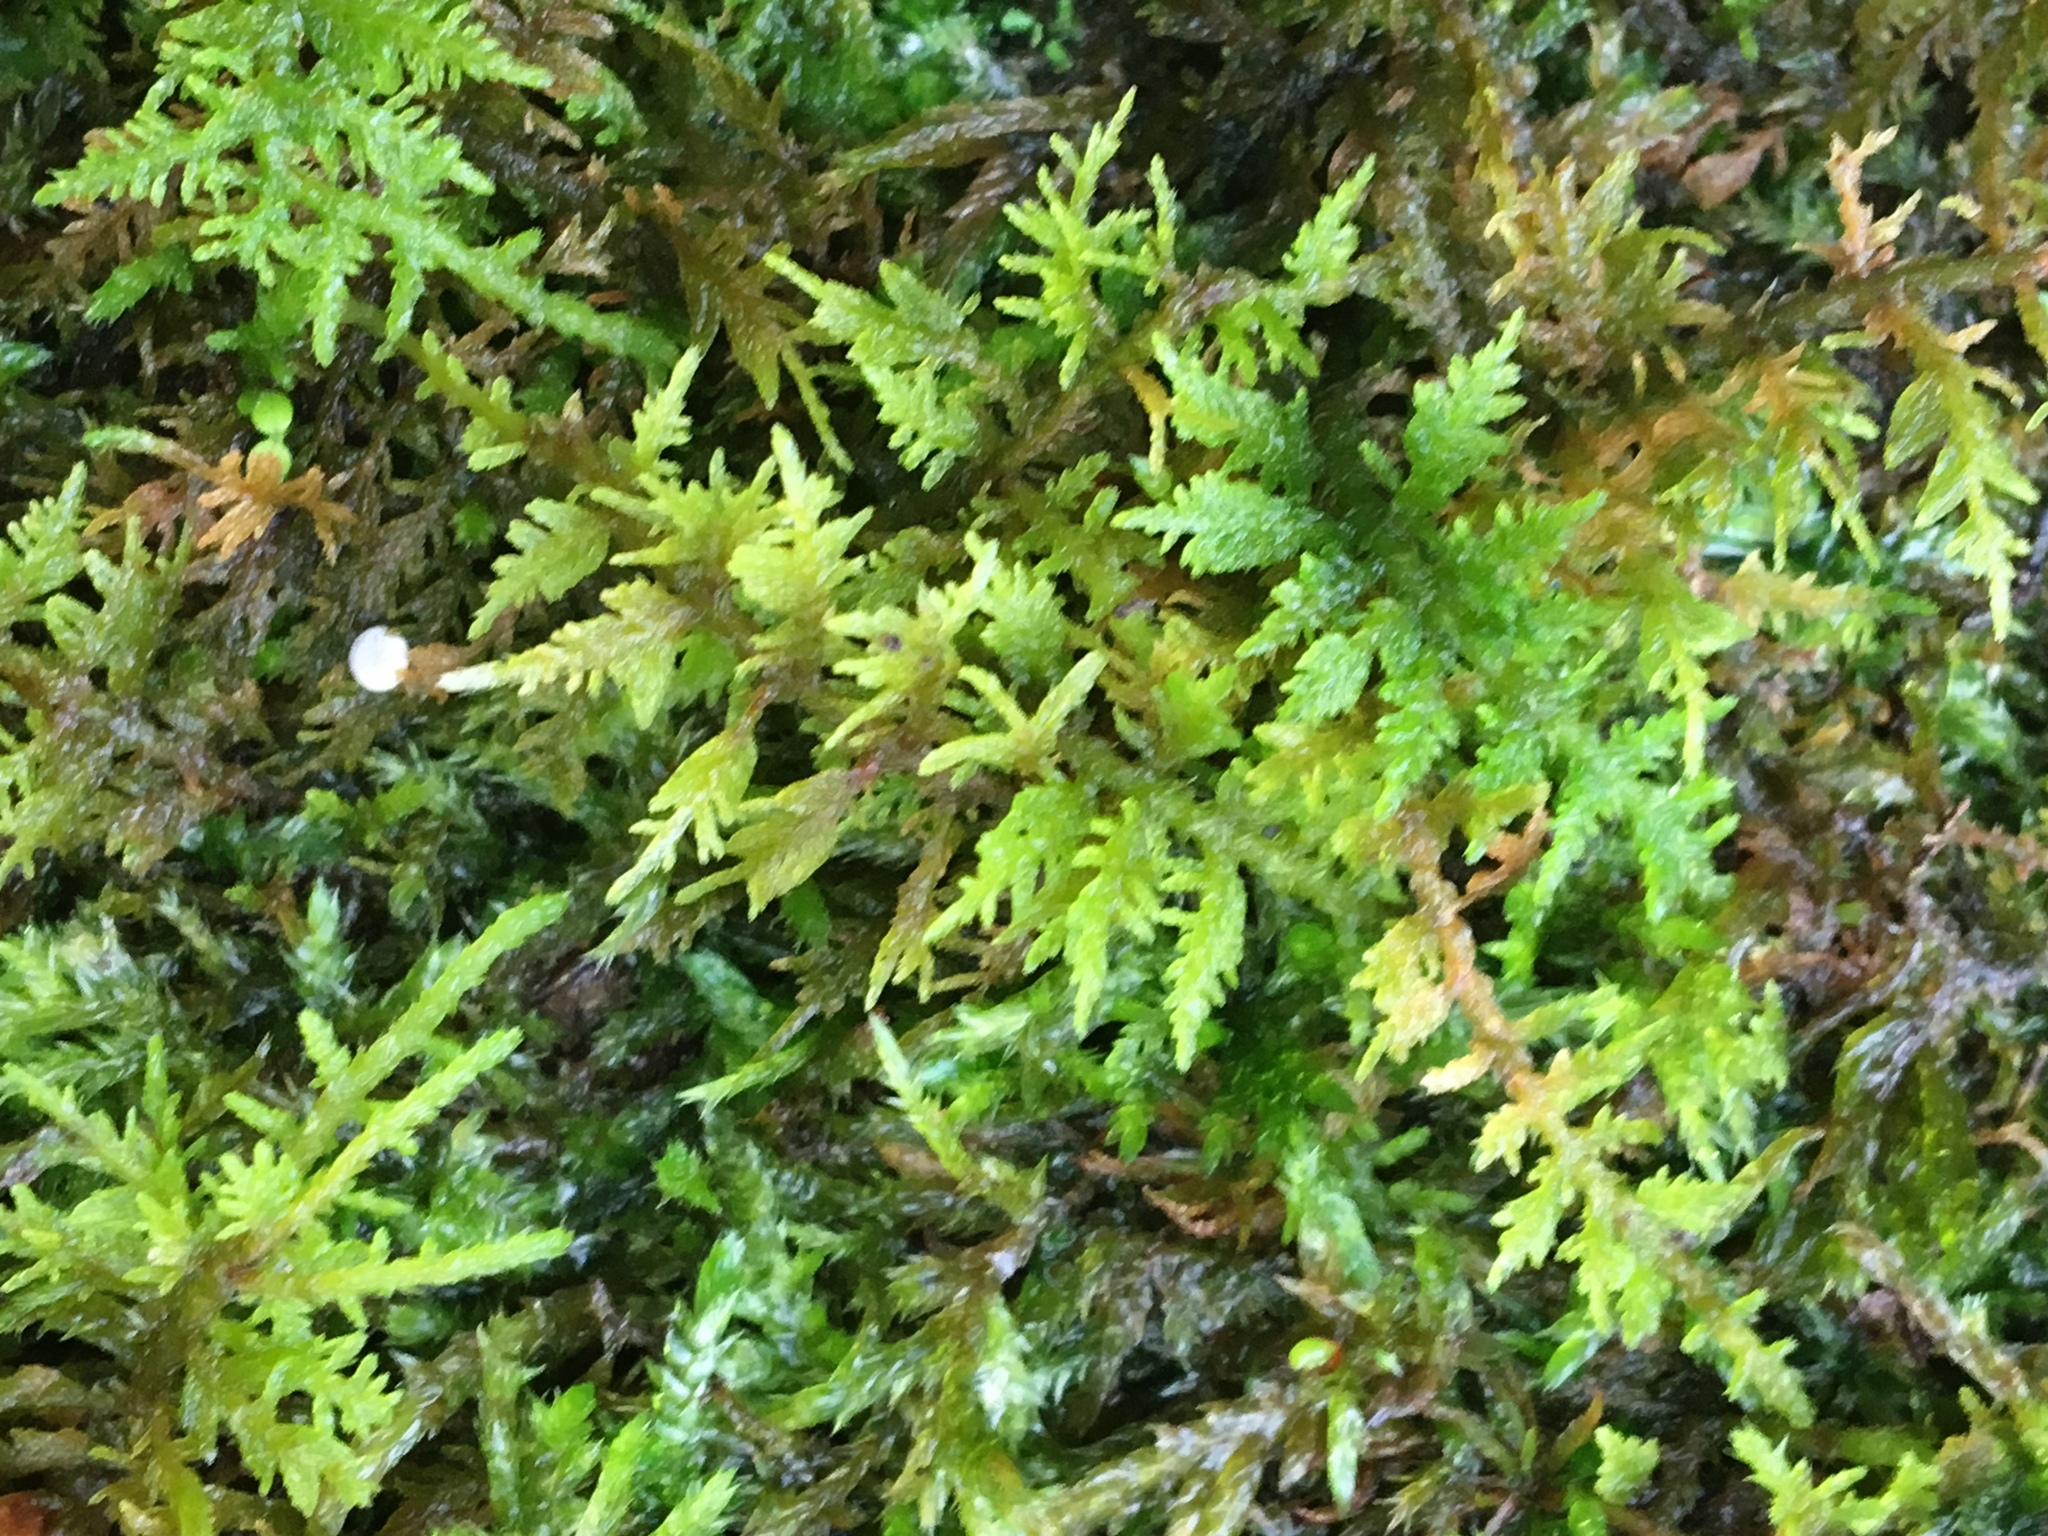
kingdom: Plantae
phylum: Bryophyta
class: Bryopsida
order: Hypnales
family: Thuidiaceae
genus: Thuidium
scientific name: Thuidium delicatulum
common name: Delicate fern moss
